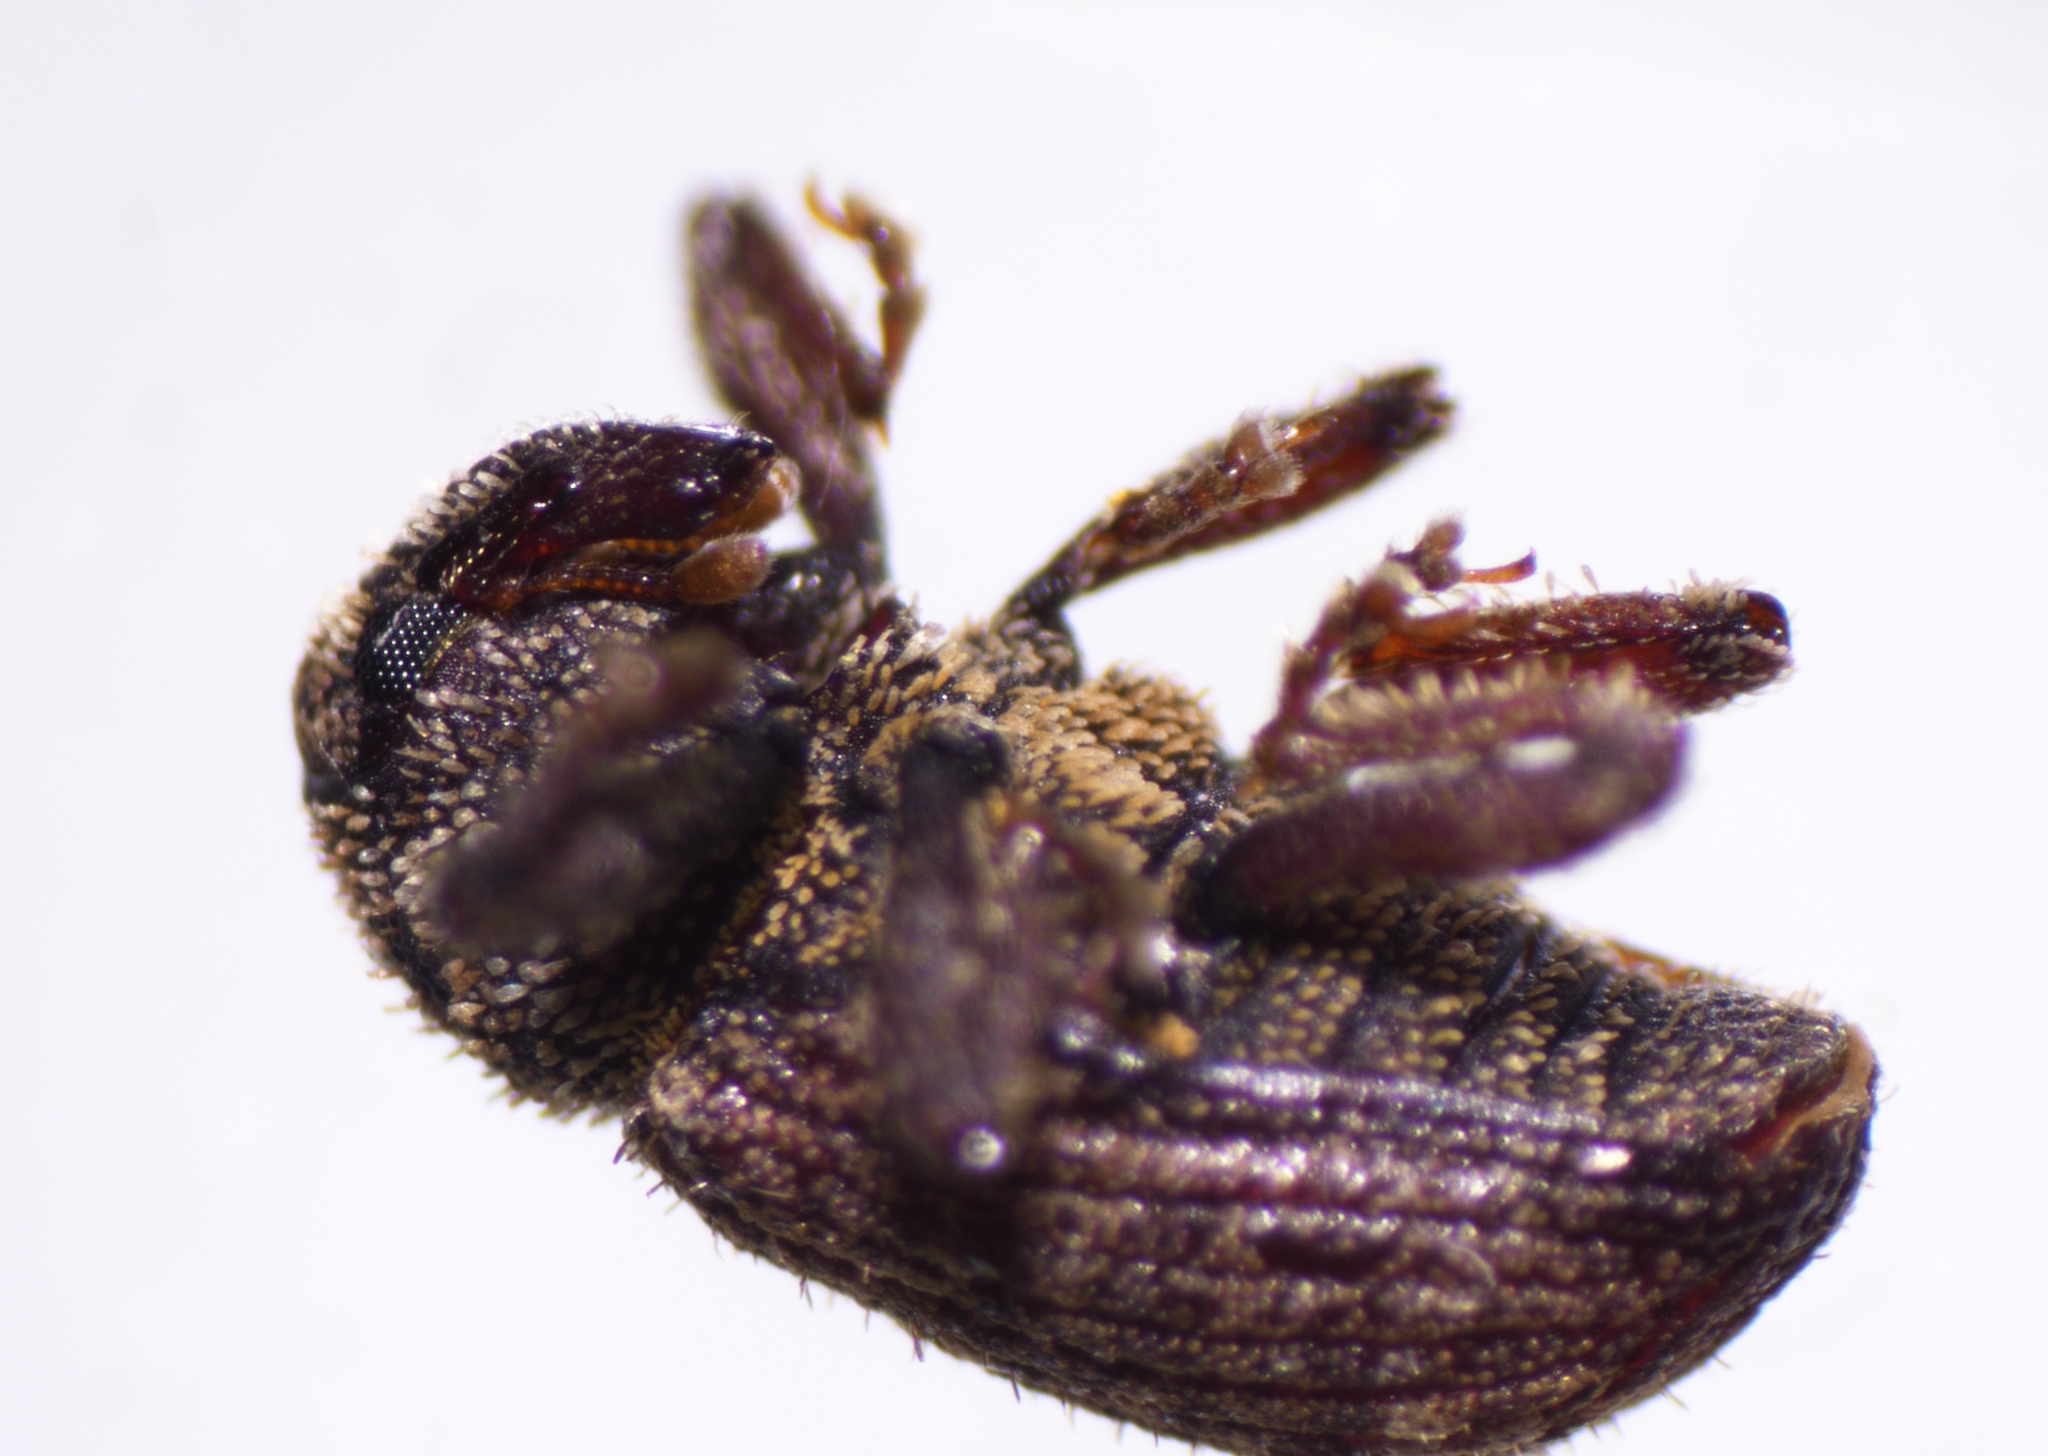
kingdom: Animalia
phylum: Arthropoda
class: Insecta
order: Coleoptera
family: Curculionidae
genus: Euscepes
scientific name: Euscepes postfasciatus
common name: West indian sweet potato weevil
